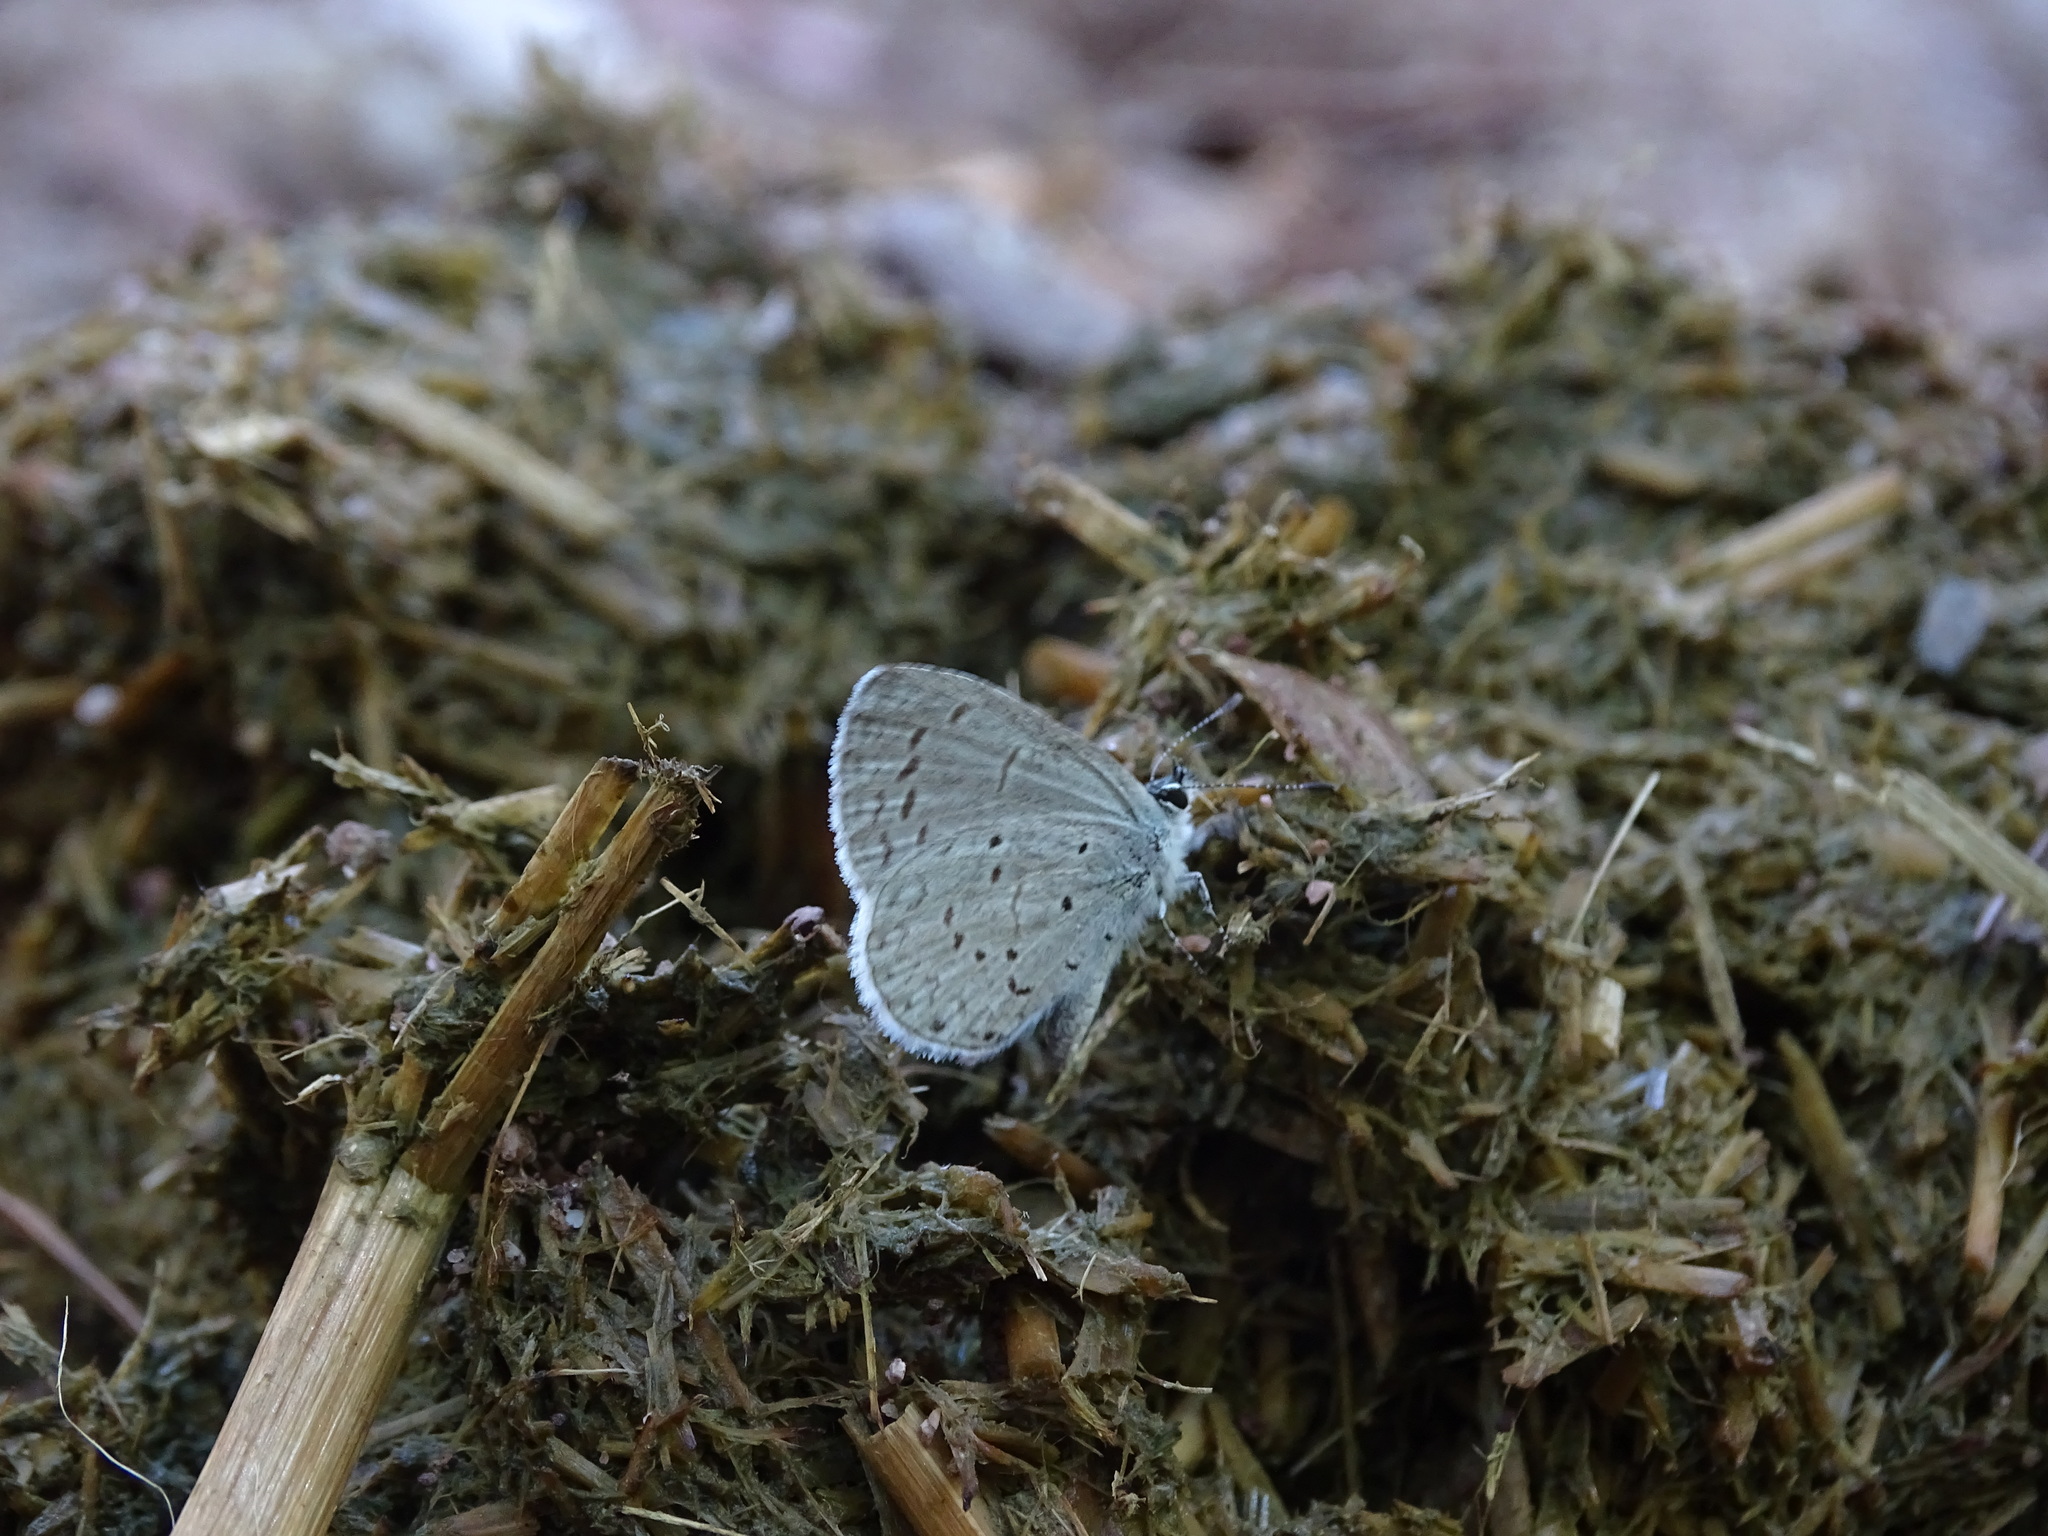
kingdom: Animalia
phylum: Arthropoda
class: Insecta
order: Lepidoptera
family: Lycaenidae
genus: Celastrina
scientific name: Celastrina ladon
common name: Spring azure
